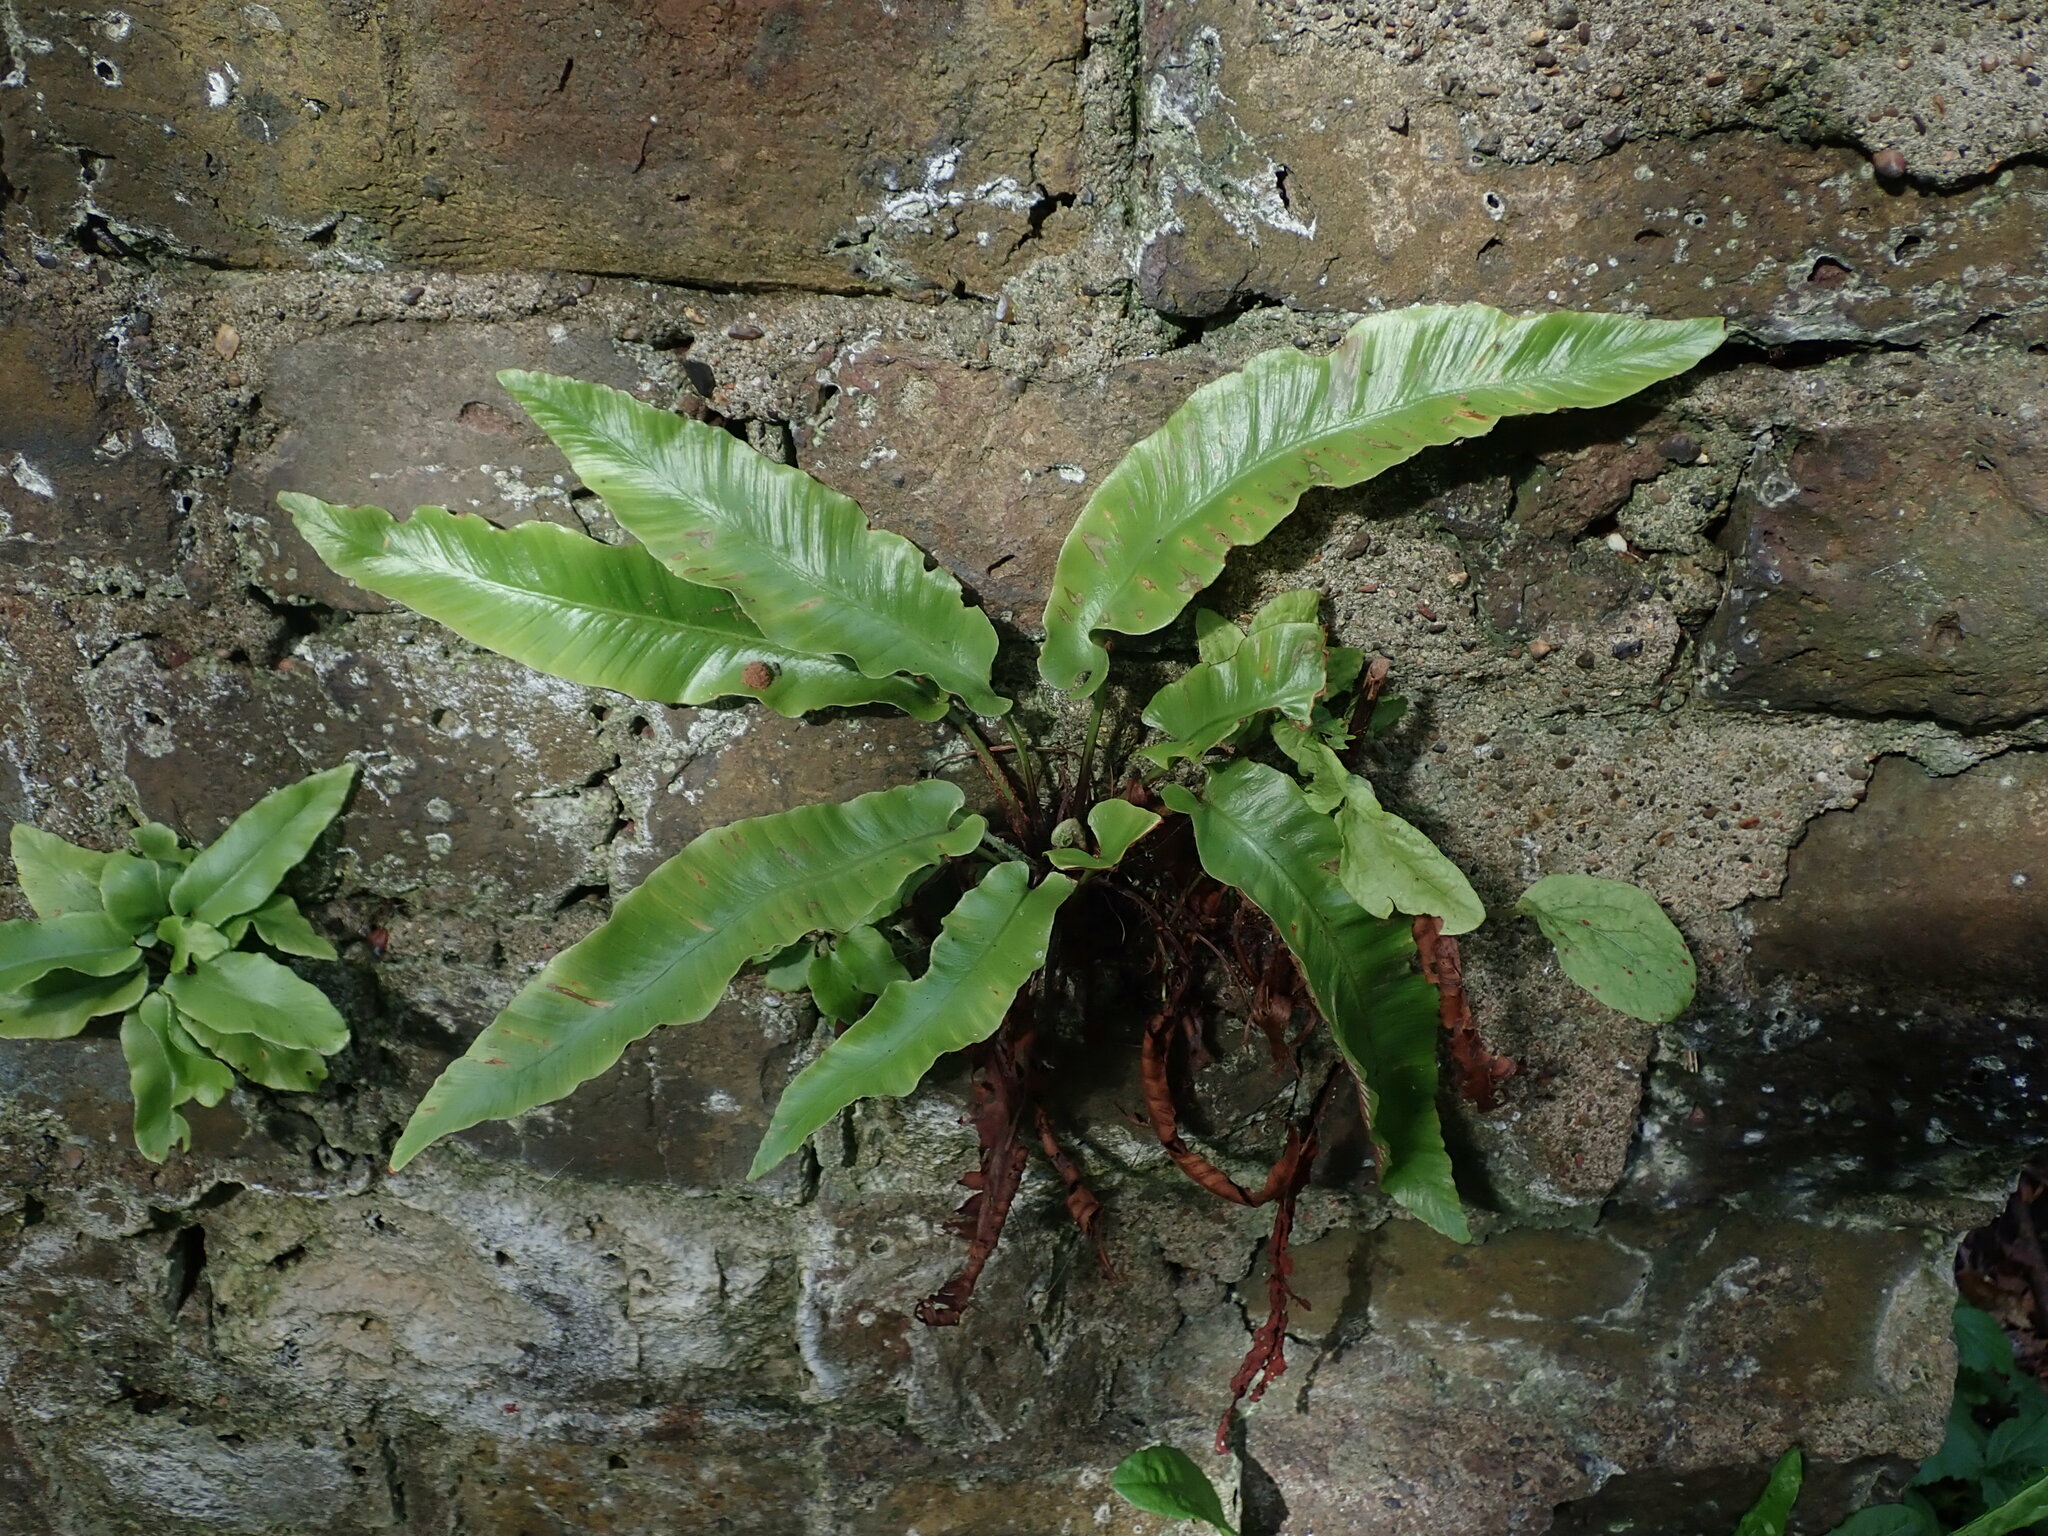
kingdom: Plantae
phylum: Tracheophyta
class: Polypodiopsida
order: Polypodiales
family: Aspleniaceae
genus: Asplenium
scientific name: Asplenium scolopendrium
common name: Hart's-tongue fern
